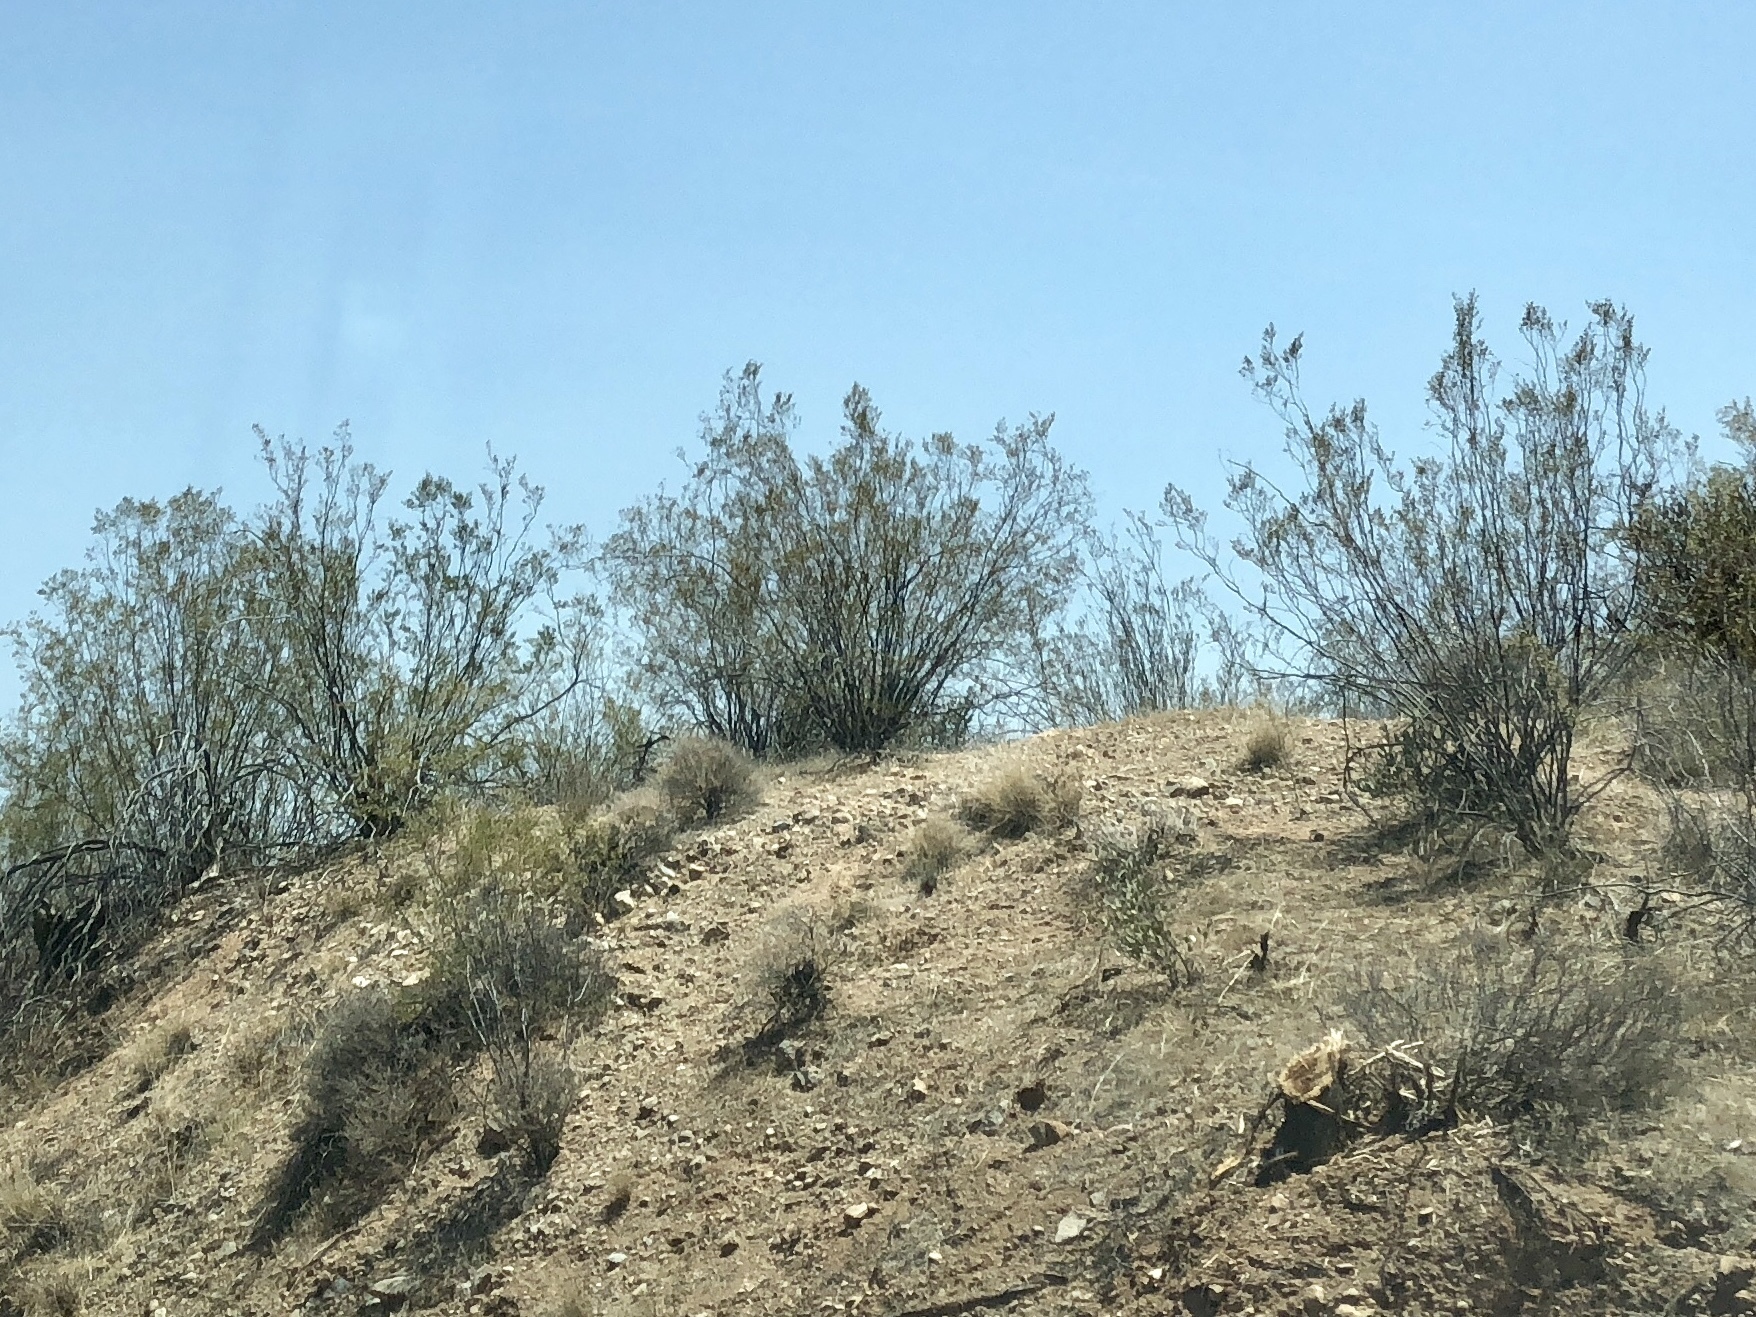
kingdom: Plantae
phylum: Tracheophyta
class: Magnoliopsida
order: Zygophyllales
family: Zygophyllaceae
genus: Larrea
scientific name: Larrea tridentata
